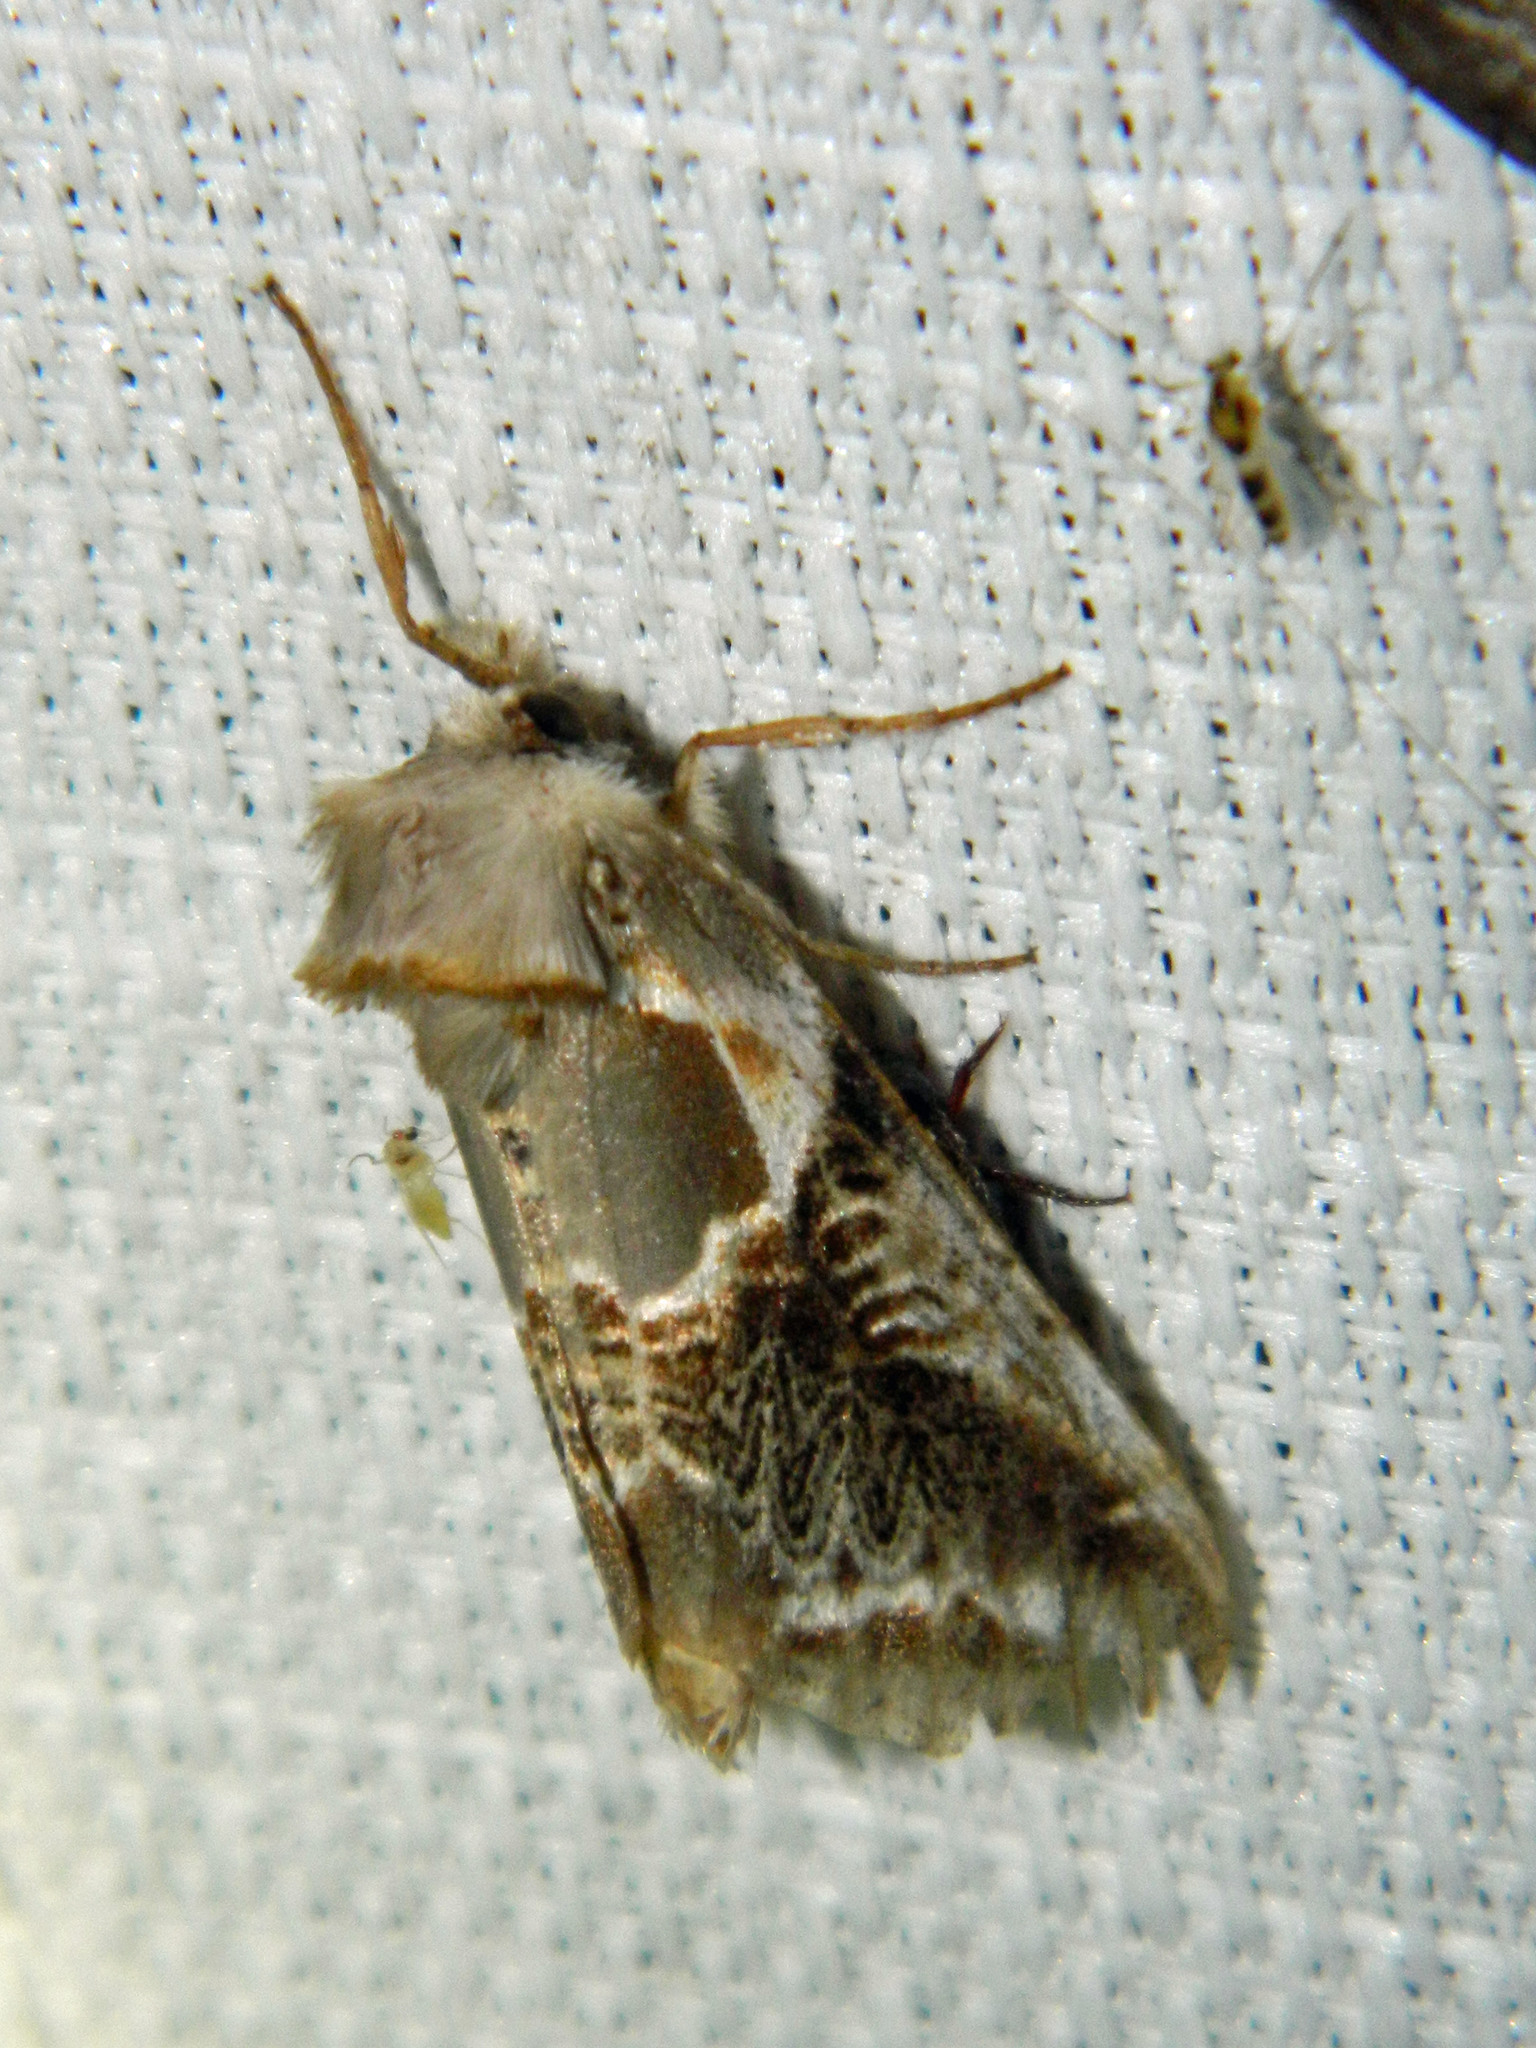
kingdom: Animalia
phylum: Arthropoda
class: Insecta
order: Lepidoptera
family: Drepanidae
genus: Habrosyne
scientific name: Habrosyne scripta
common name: Lettered habrosyne moth
